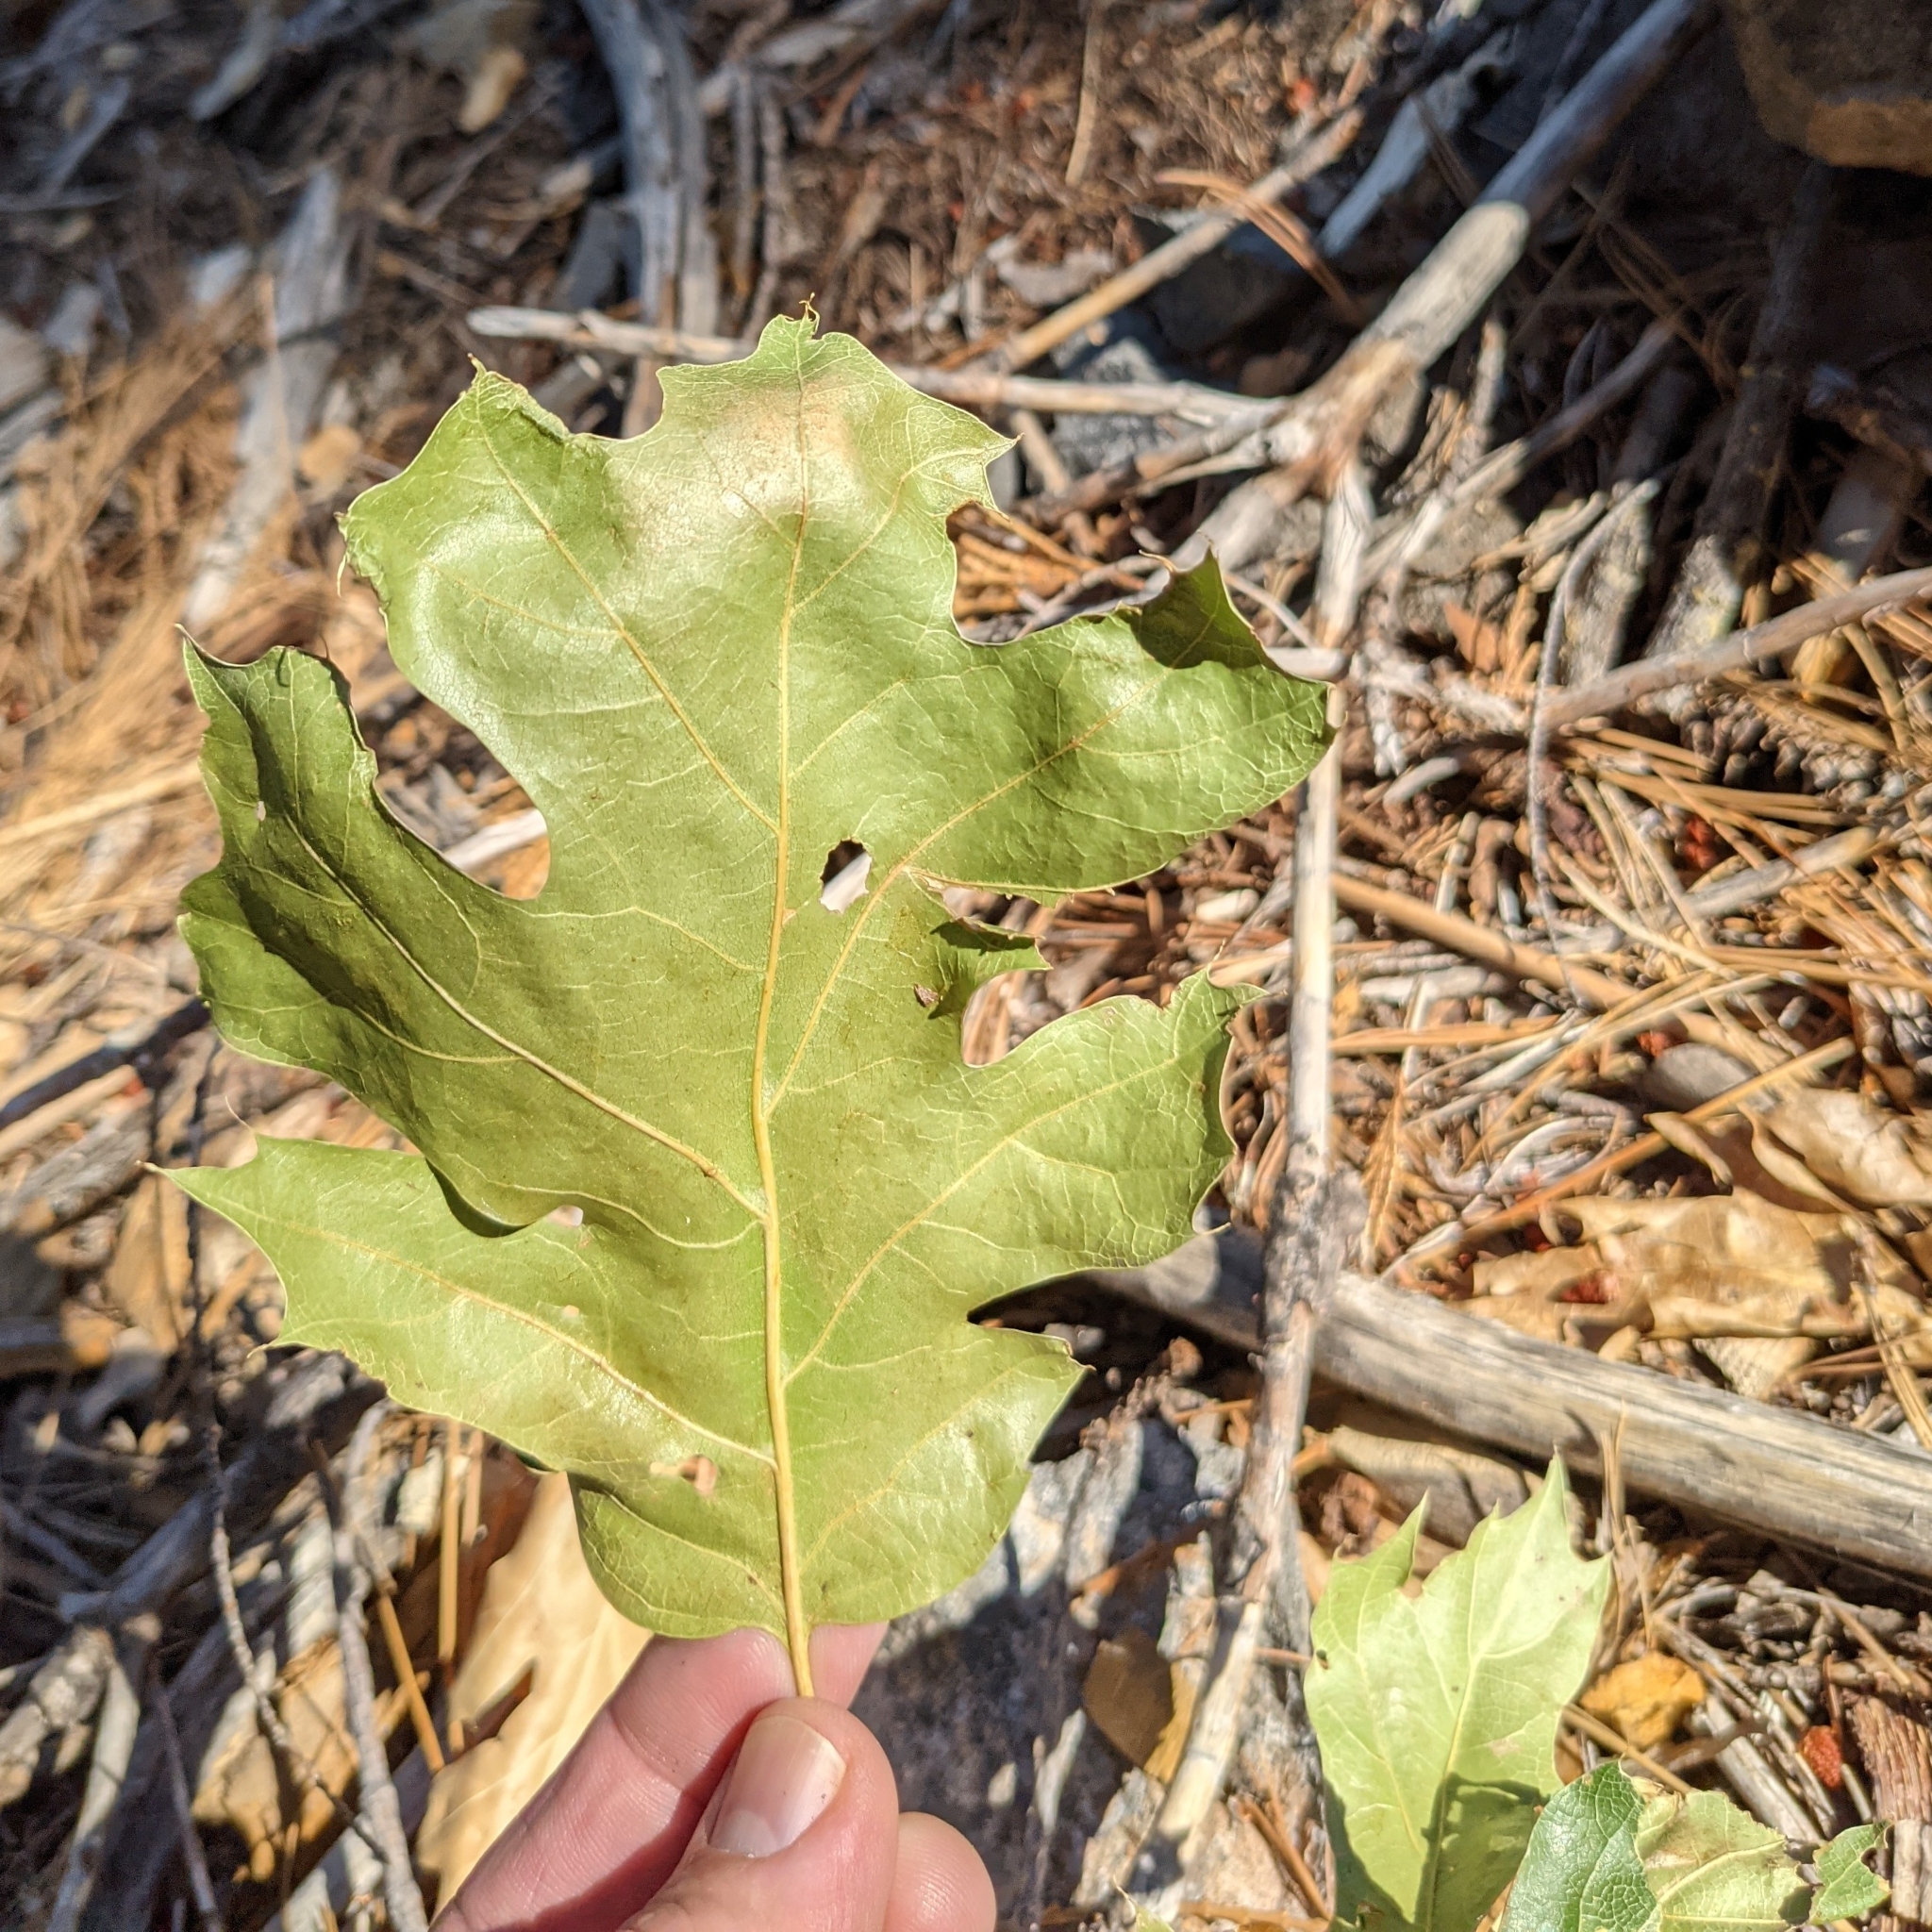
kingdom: Plantae
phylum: Tracheophyta
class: Magnoliopsida
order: Fagales
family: Fagaceae
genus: Quercus
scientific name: Quercus kelloggii
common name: California black oak
